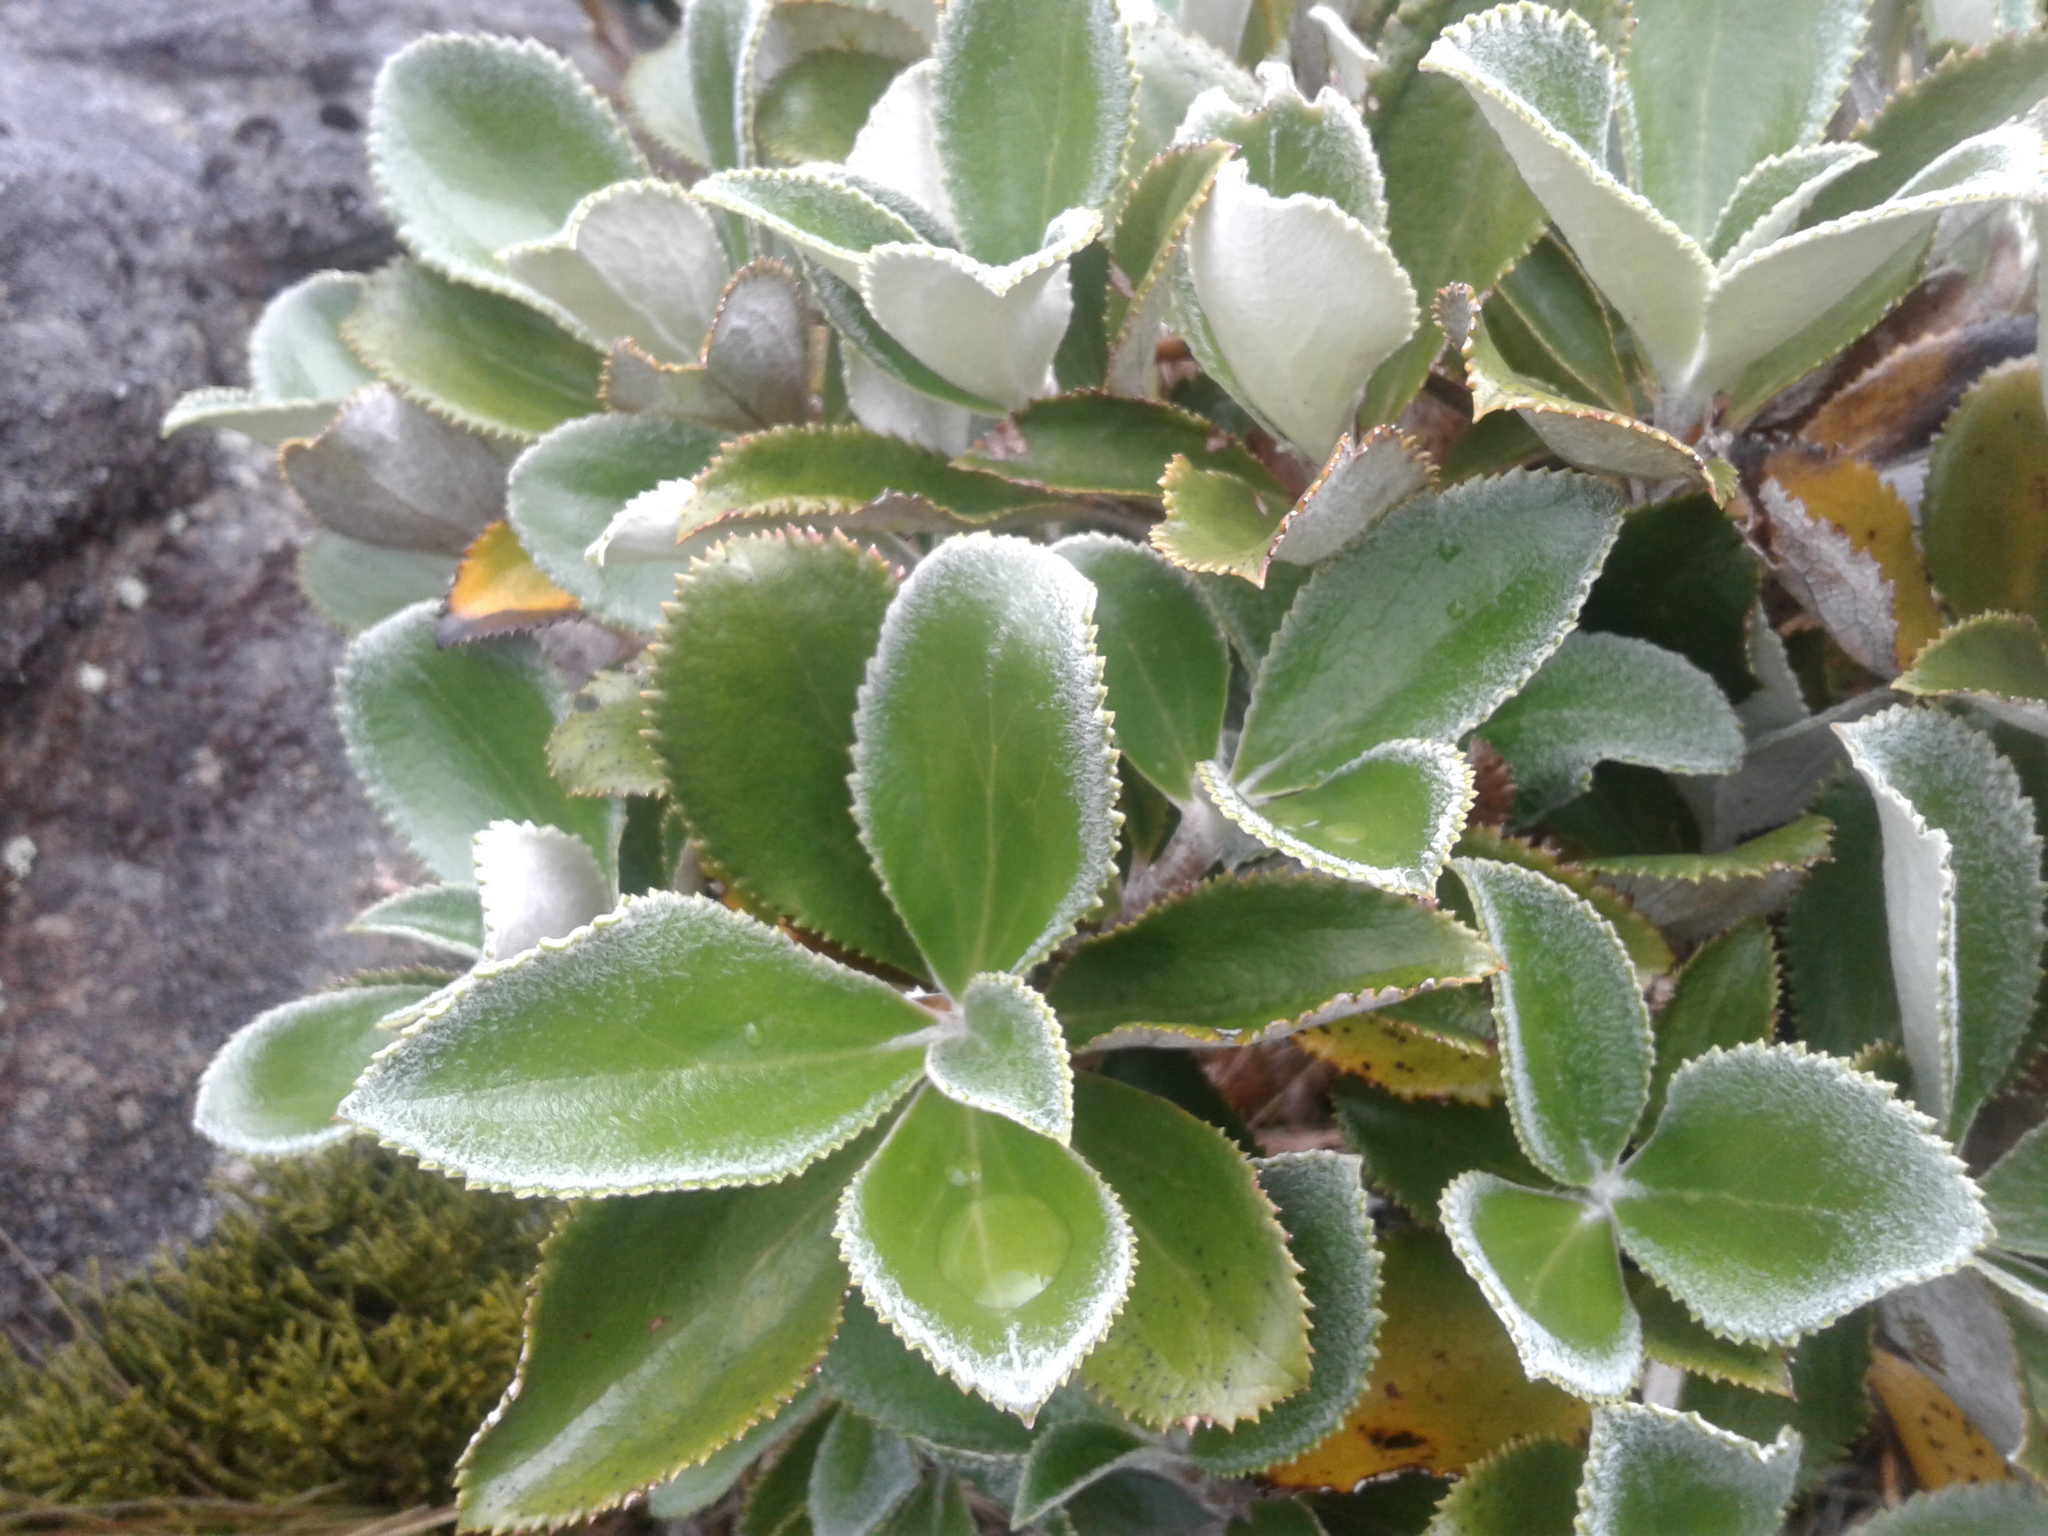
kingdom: Plantae
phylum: Tracheophyta
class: Magnoliopsida
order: Asterales
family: Asteraceae
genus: Macrolearia
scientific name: Macrolearia colensoi
